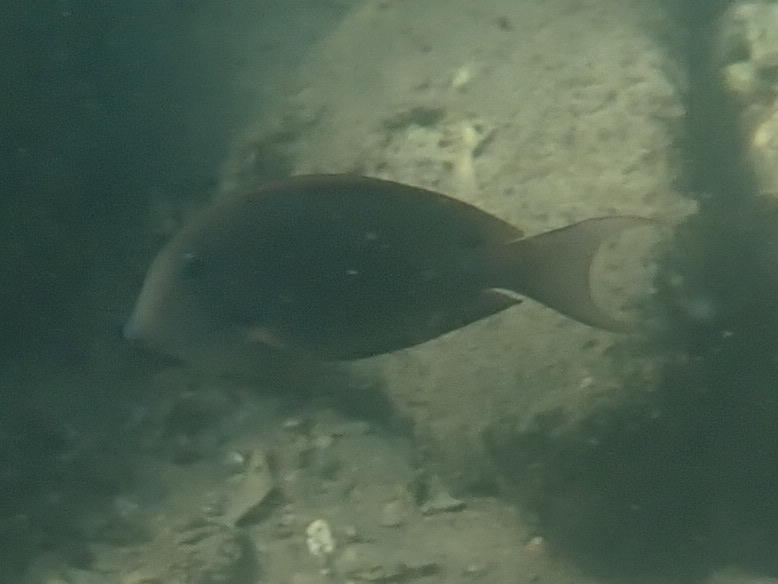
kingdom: Animalia
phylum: Chordata
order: Perciformes
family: Acanthuridae
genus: Acanthurus
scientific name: Acanthurus nigrofuscus
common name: Blackspot surgeonfish
